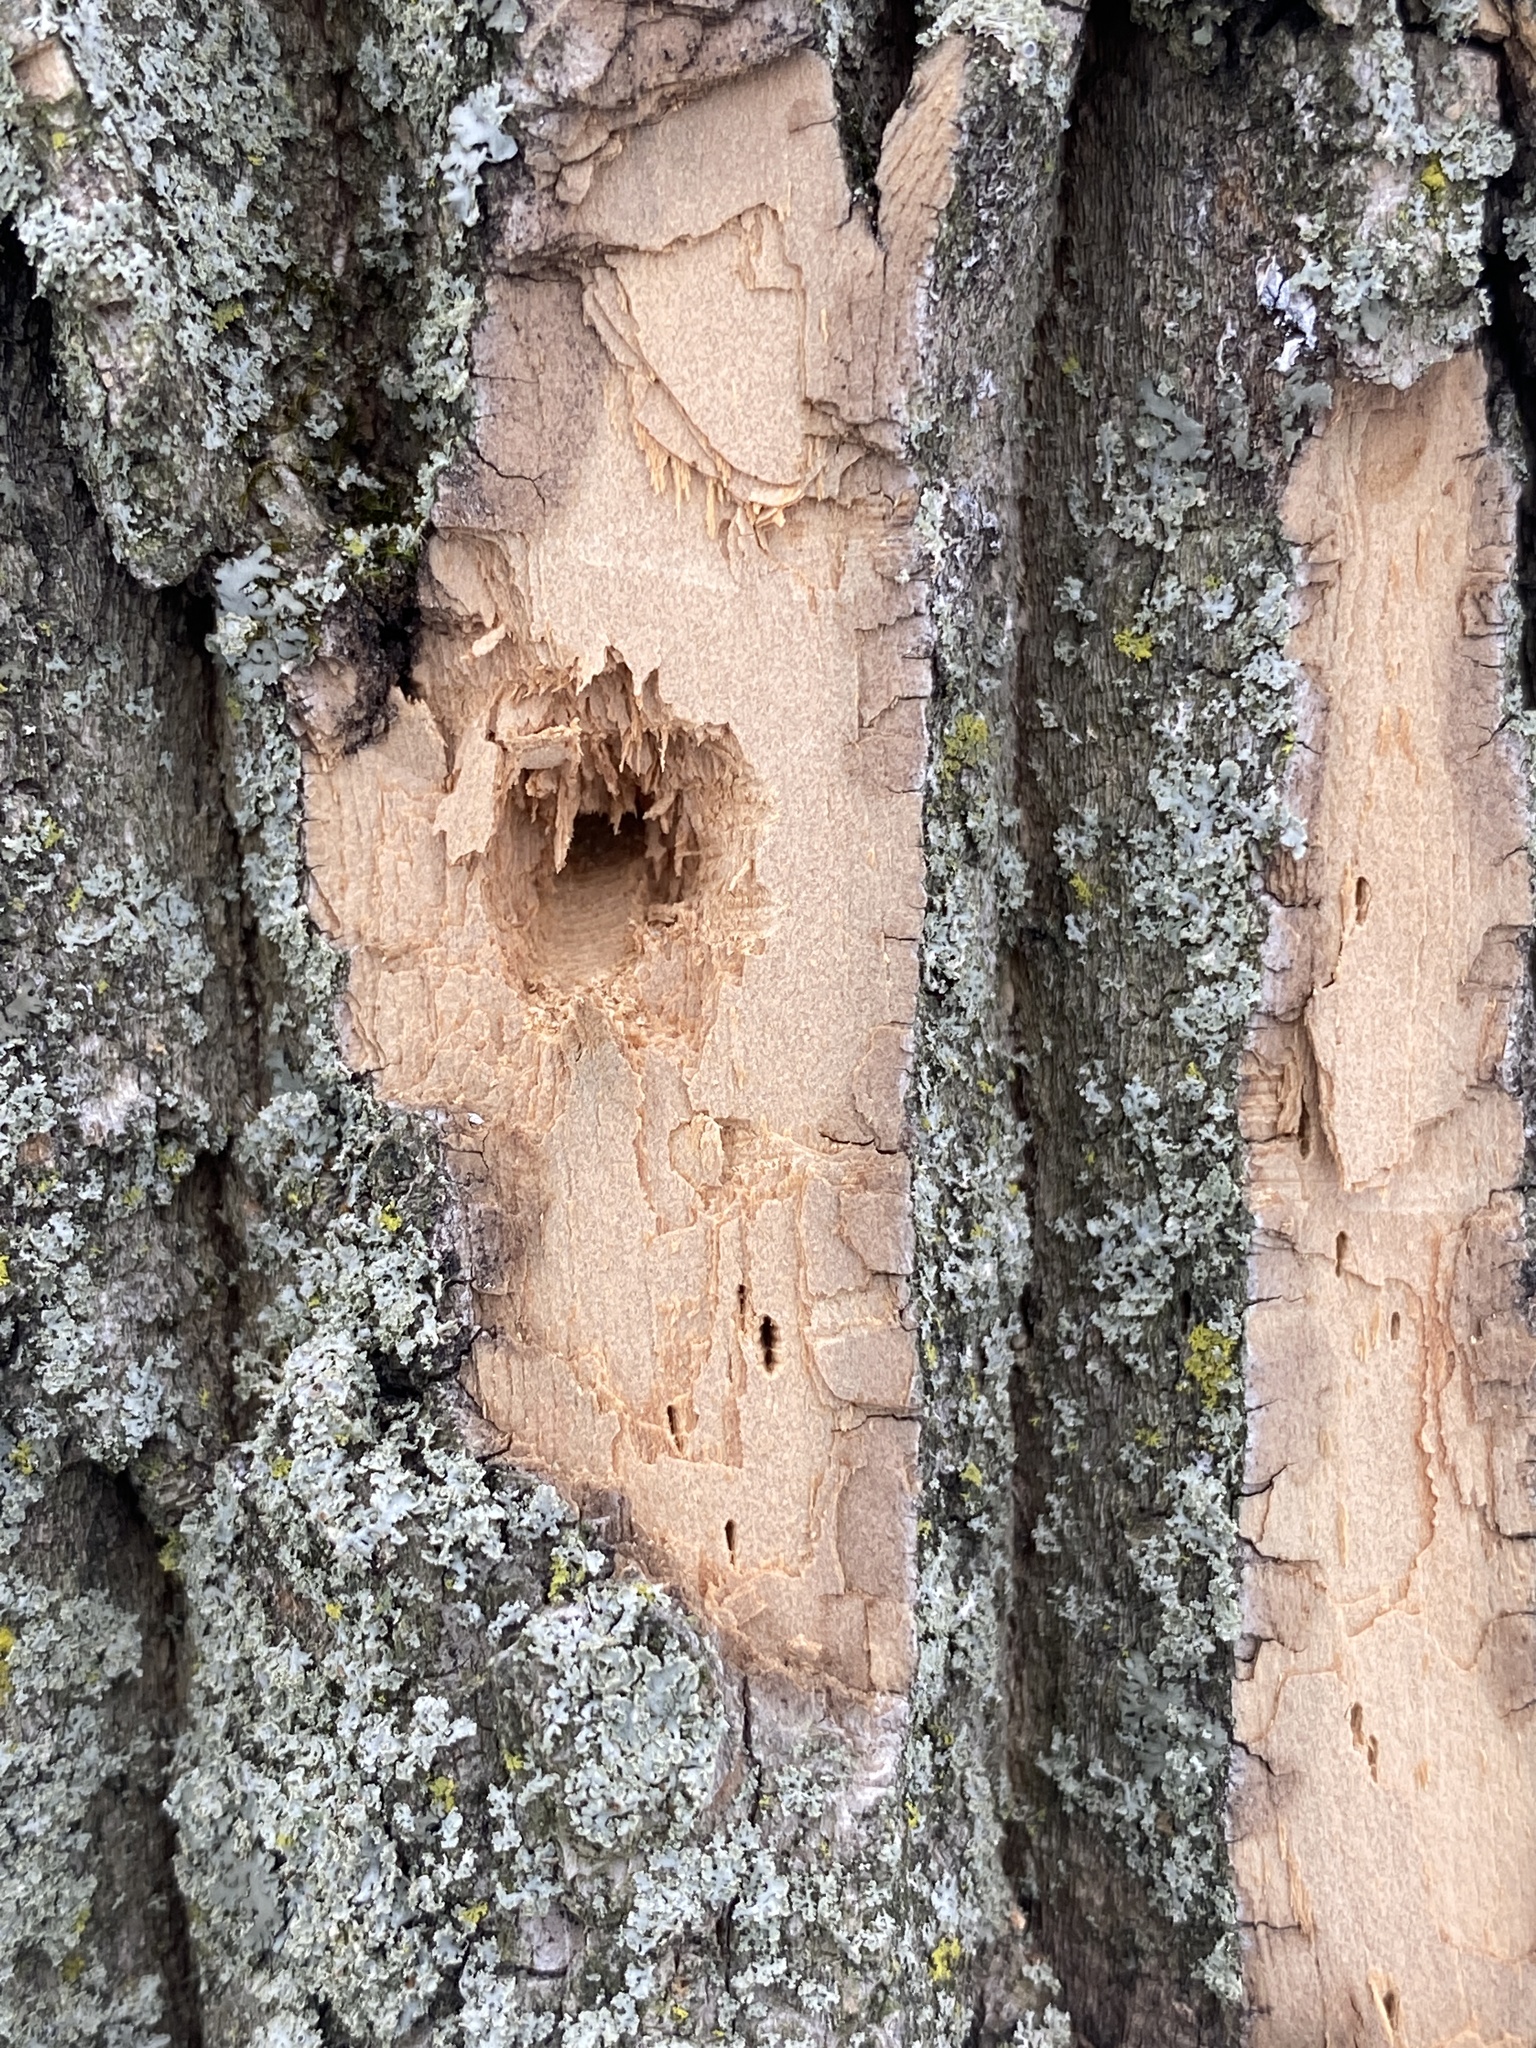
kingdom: Animalia
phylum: Arthropoda
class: Insecta
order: Coleoptera
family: Buprestidae
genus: Agrilus
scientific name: Agrilus planipennis
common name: Emerald ash borer
